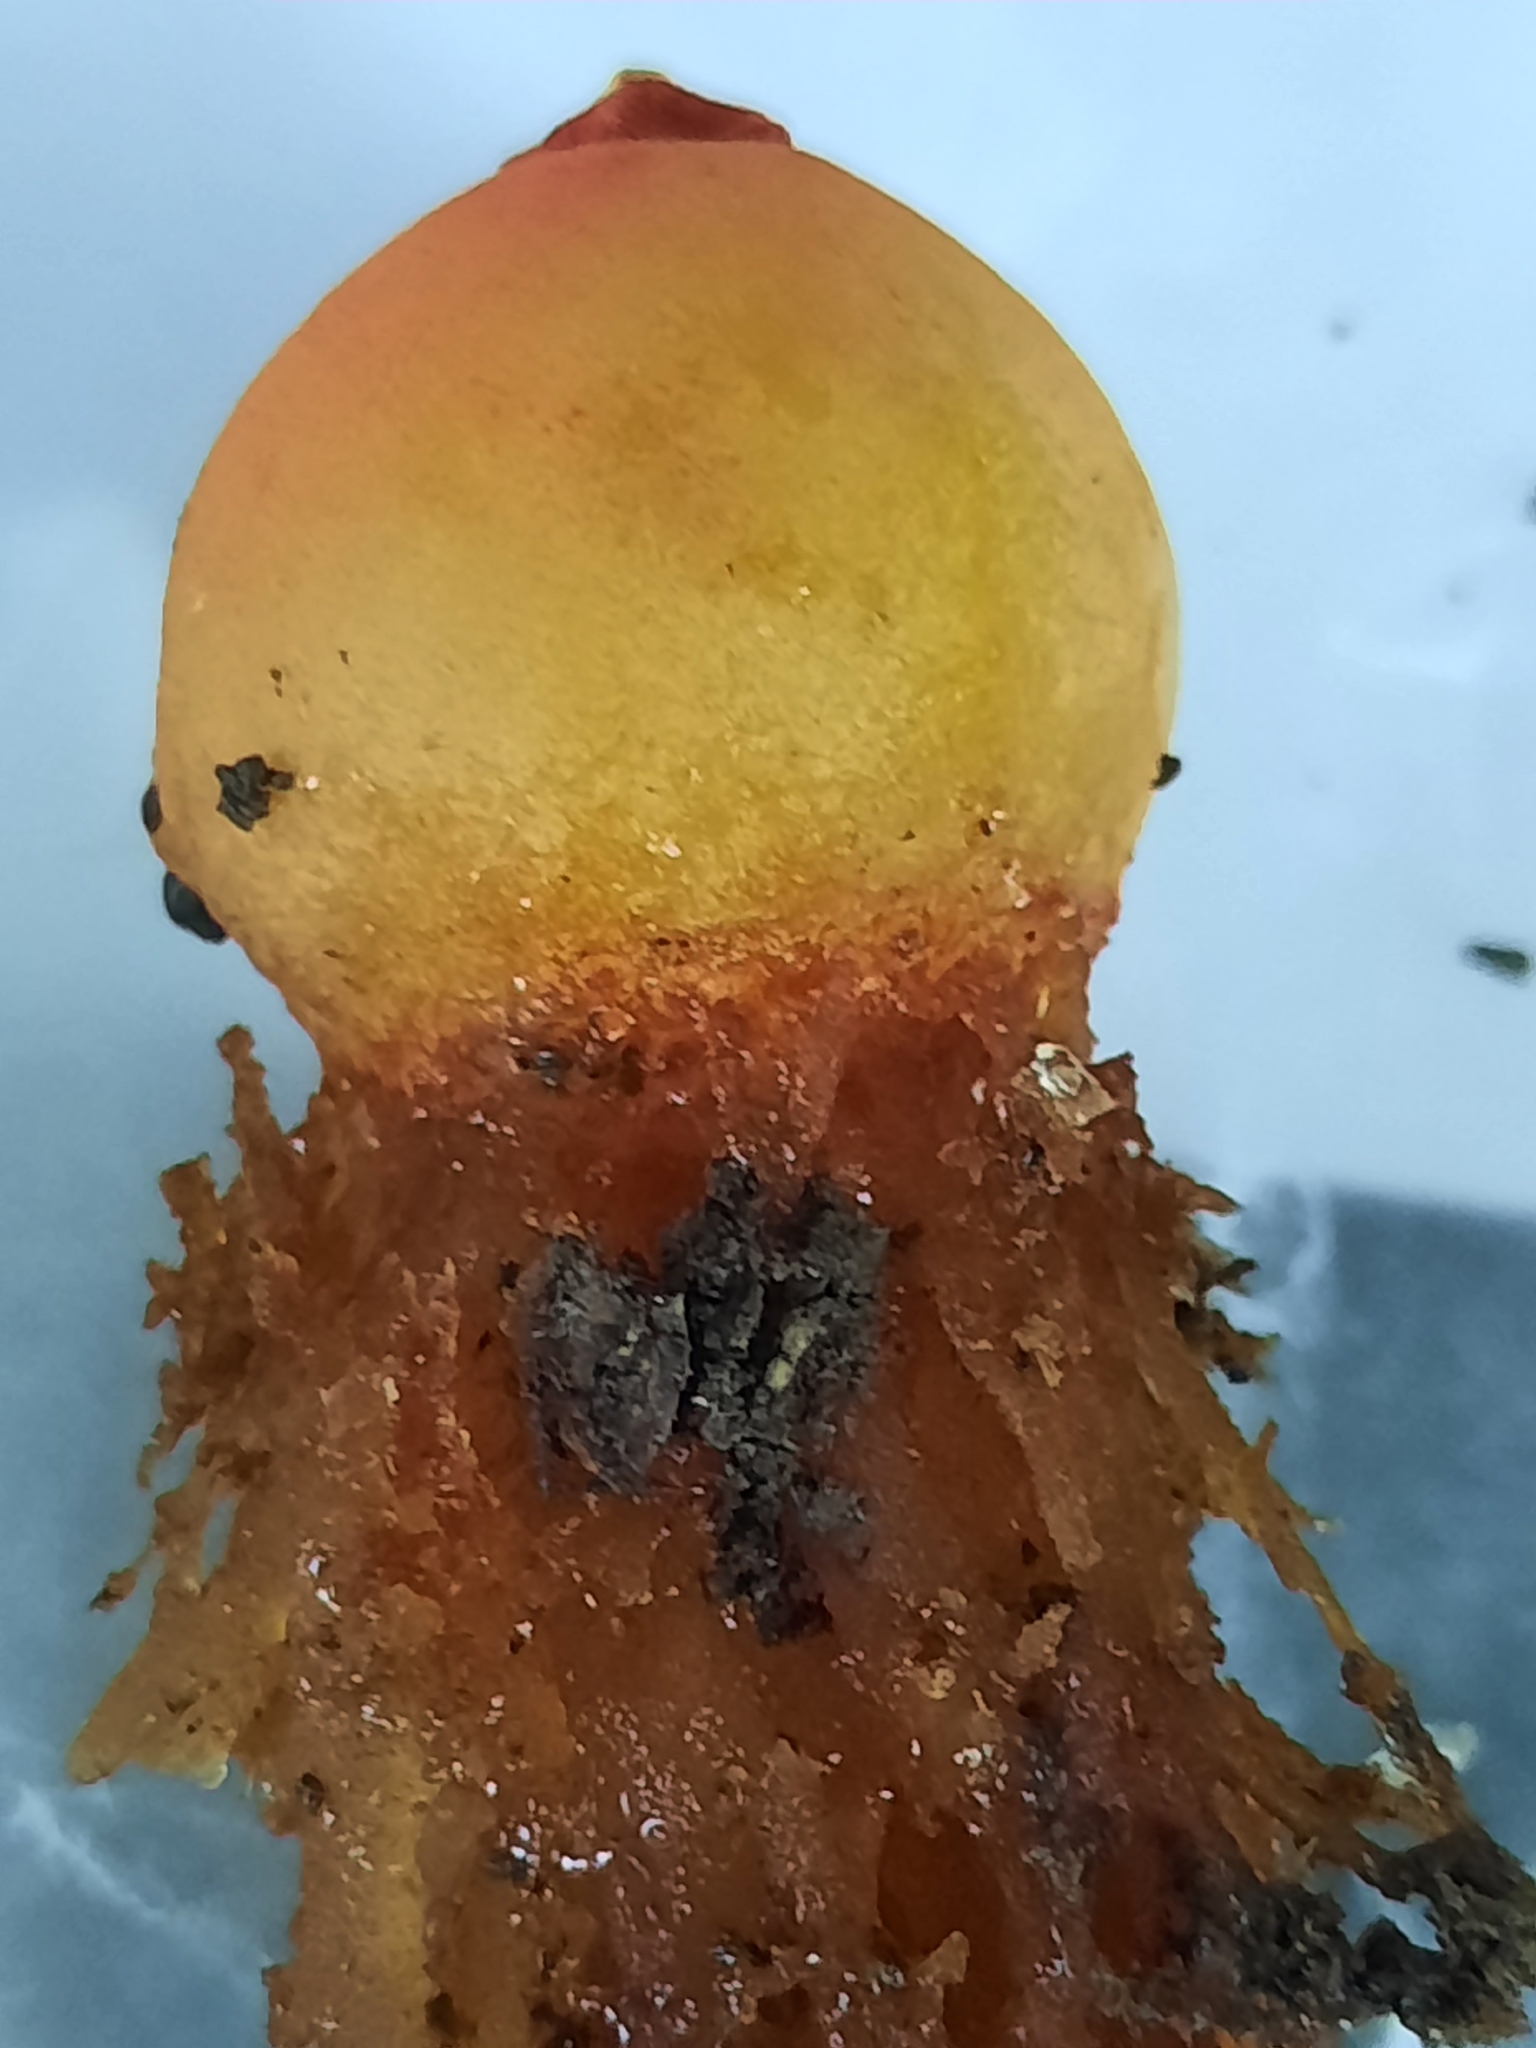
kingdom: Fungi
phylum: Basidiomycota
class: Agaricomycetes
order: Boletales
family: Calostomataceae
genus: Calostoma
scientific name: Calostoma cinnabarinum
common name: Stalked puffball-in-aspic
